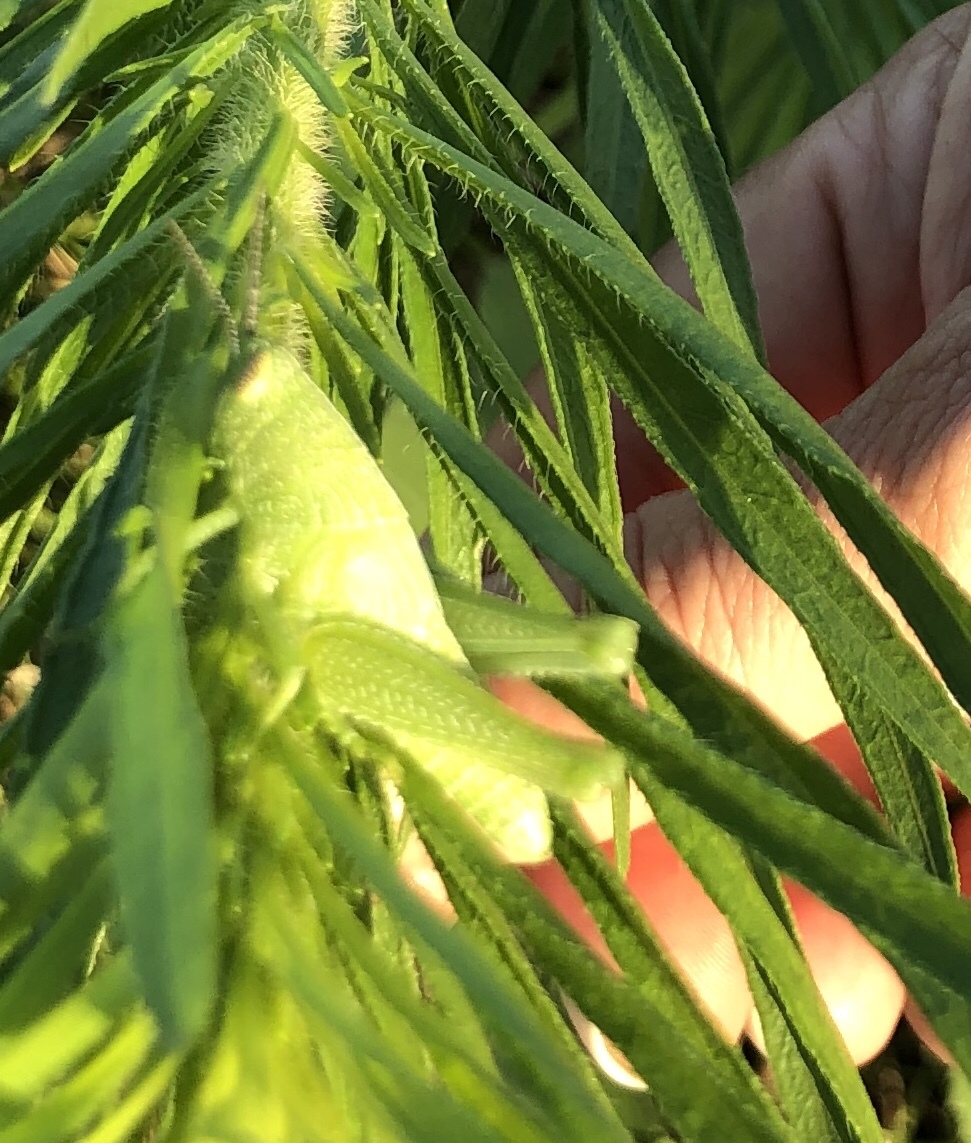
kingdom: Animalia
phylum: Arthropoda
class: Insecta
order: Orthoptera
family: Acrididae
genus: Hesperotettix
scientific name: Hesperotettix speciosus
